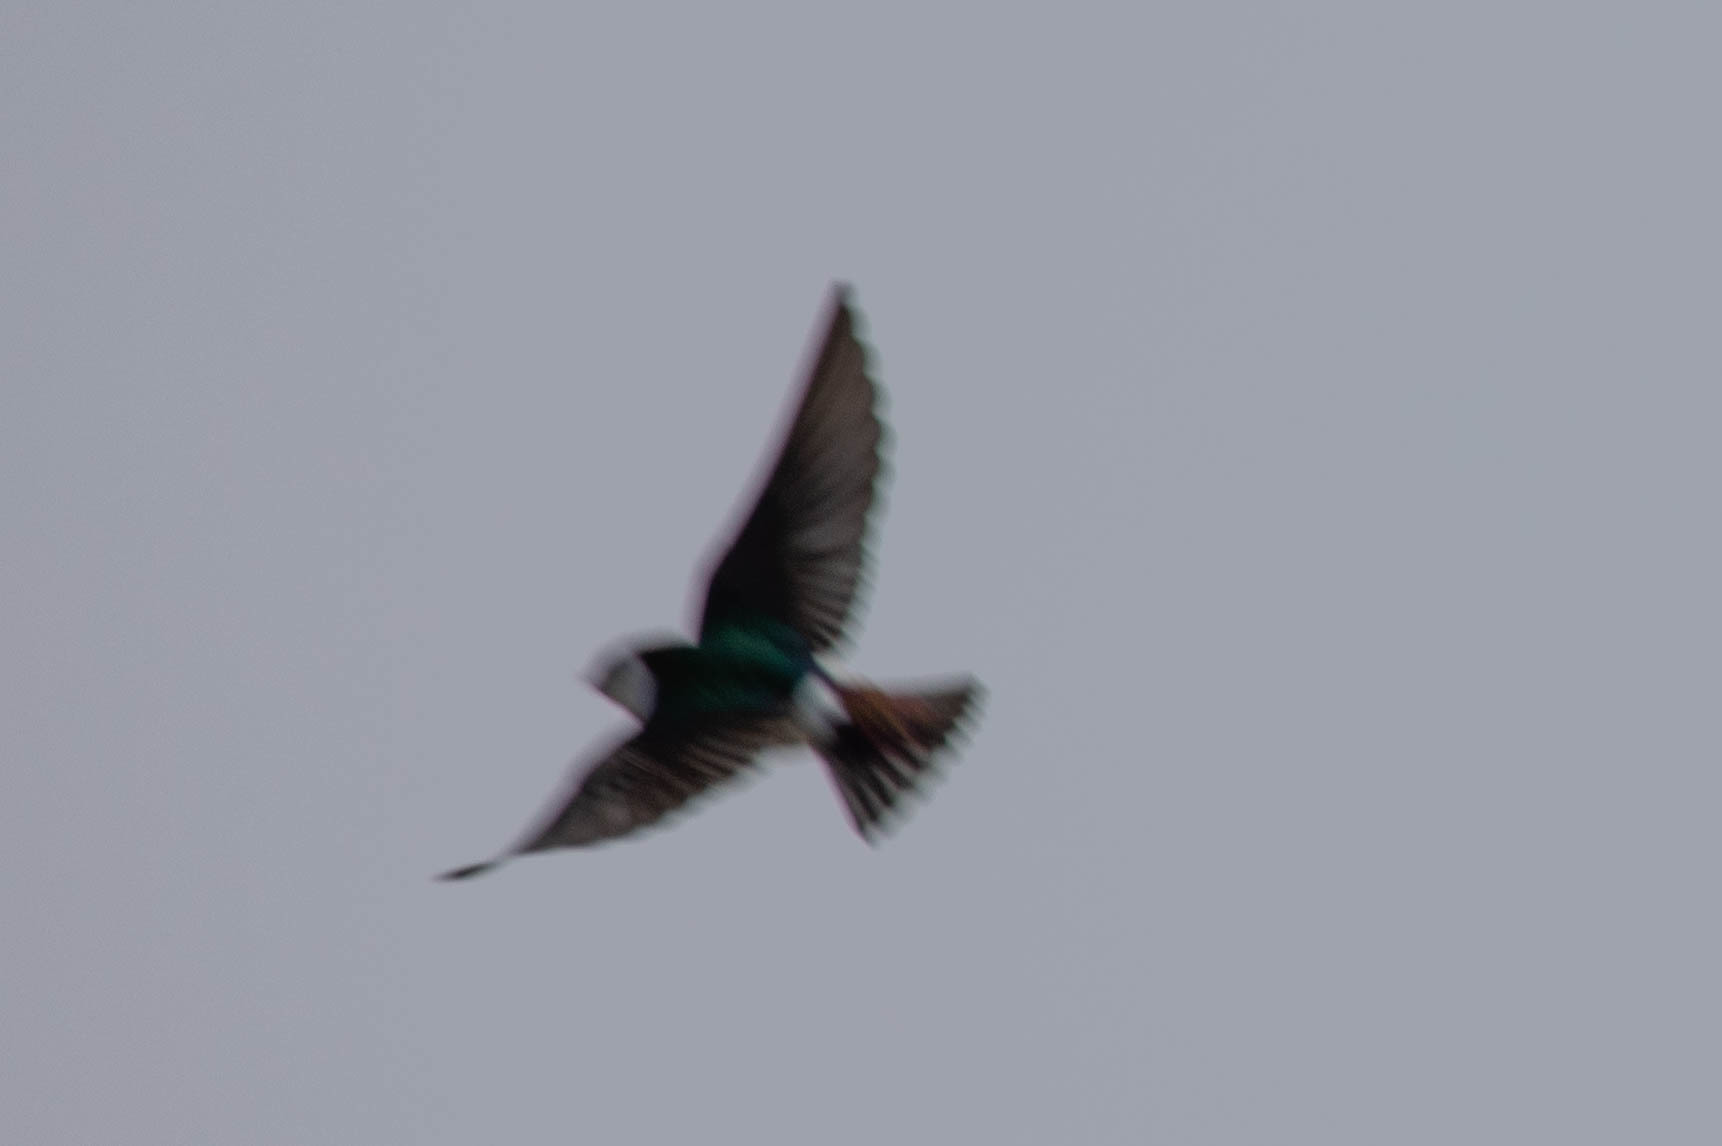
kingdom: Animalia
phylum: Chordata
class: Aves
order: Passeriformes
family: Hirundinidae
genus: Tachycineta
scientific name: Tachycineta thalassina
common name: Violet-green swallow
